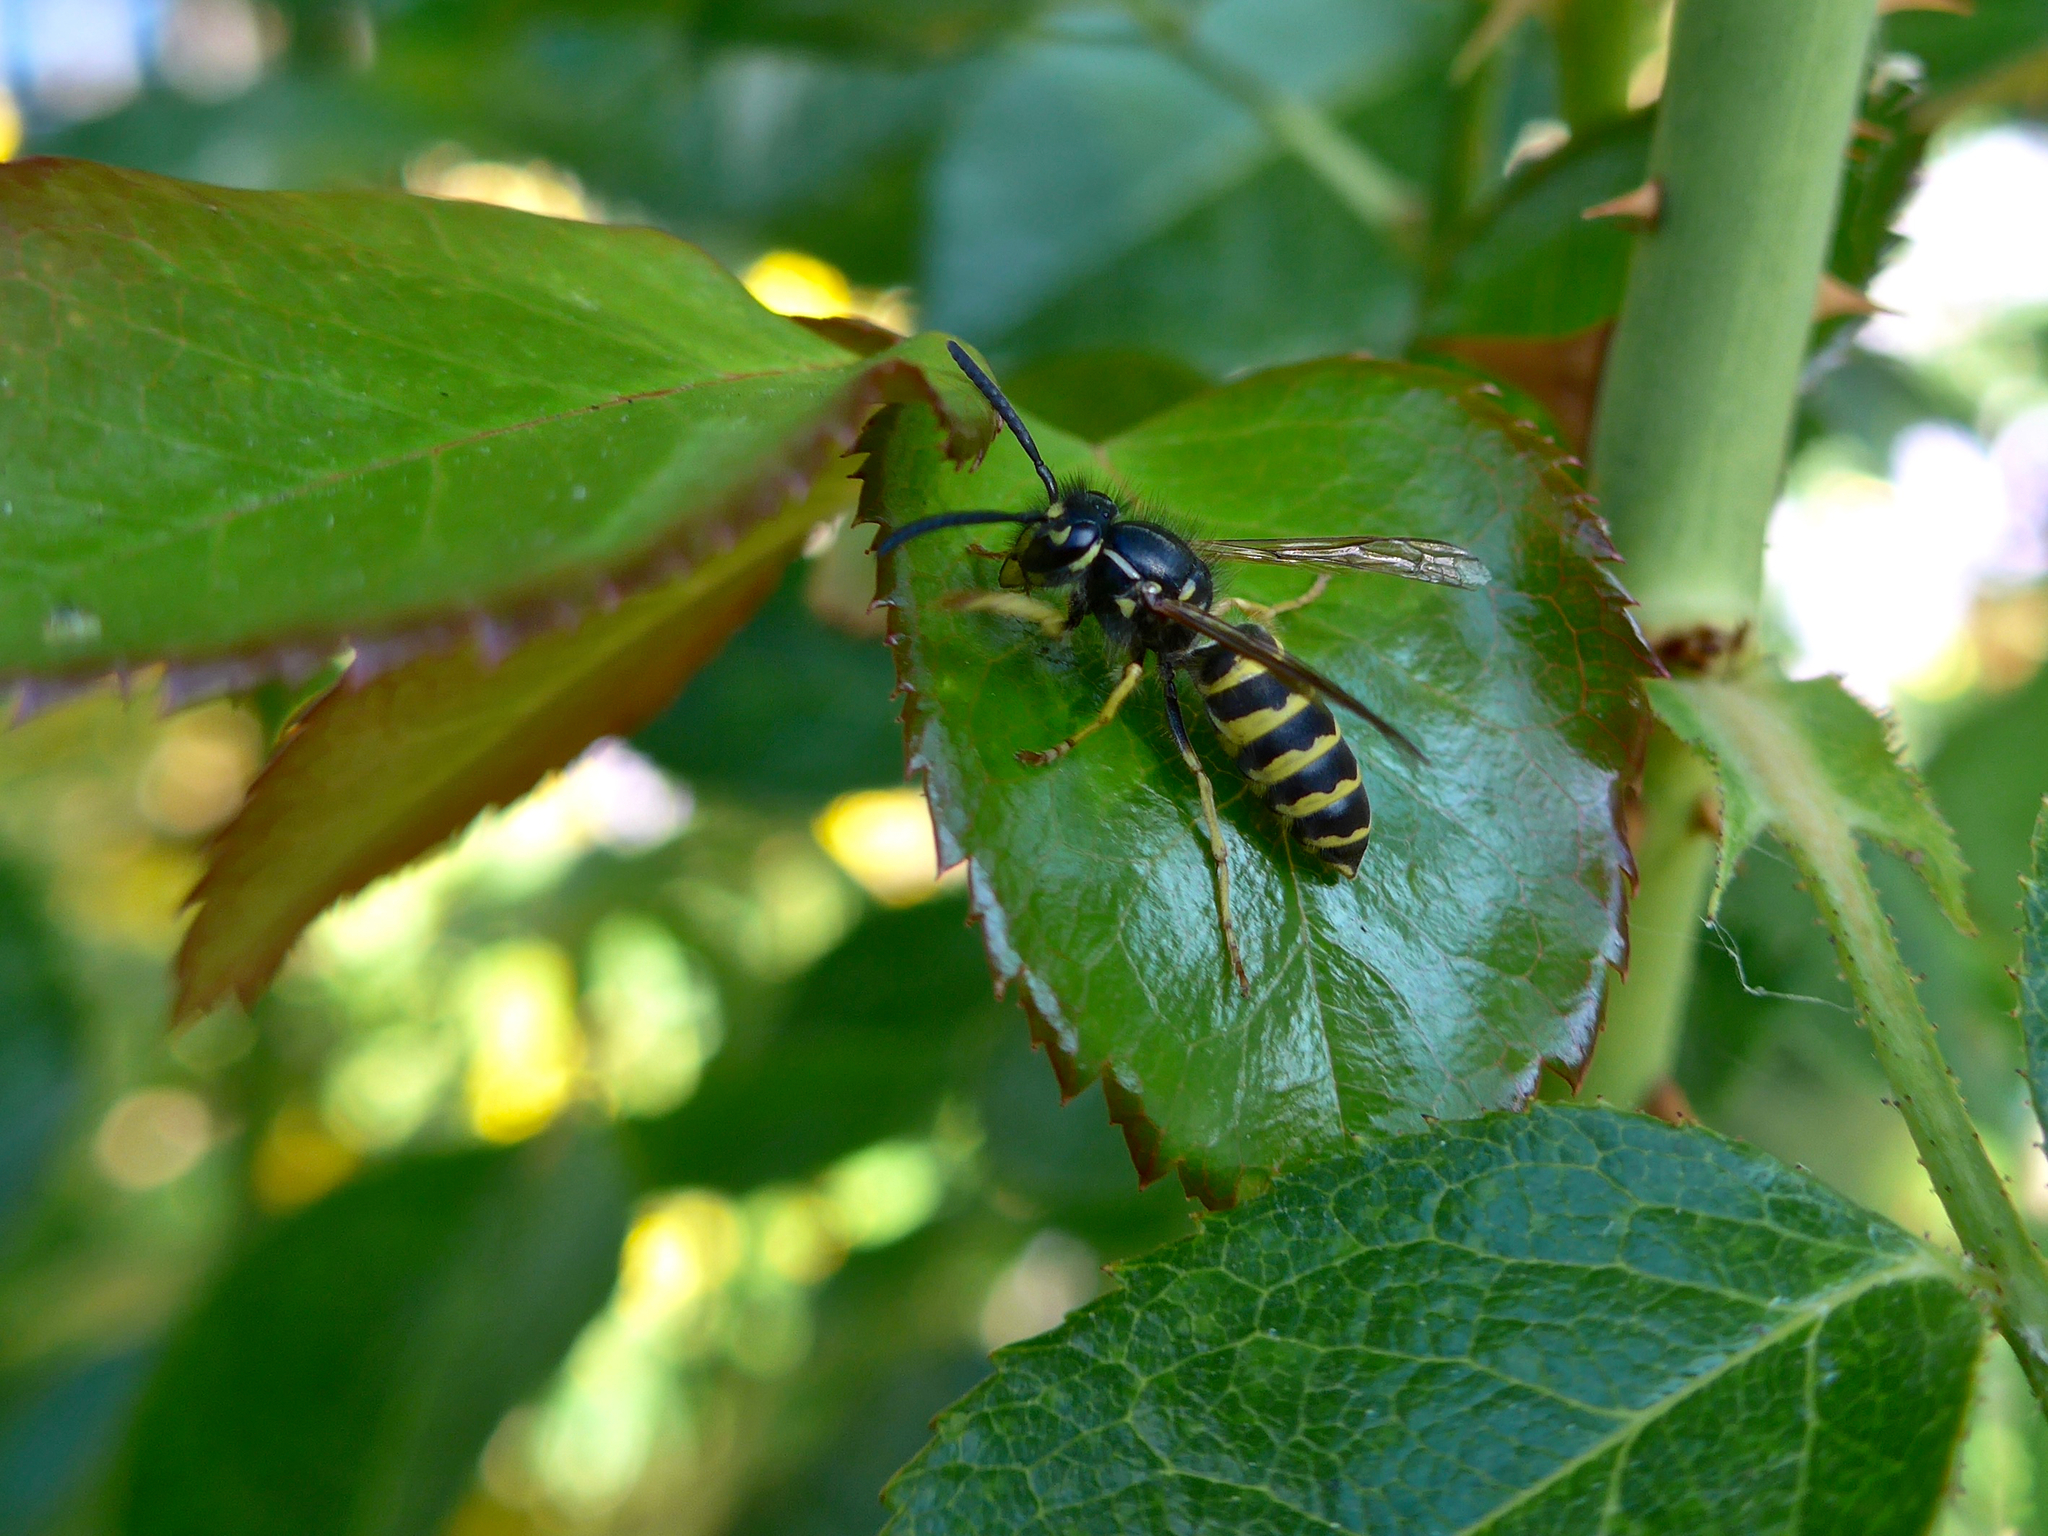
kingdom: Animalia
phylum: Arthropoda
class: Insecta
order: Hymenoptera
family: Vespidae
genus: Vespula
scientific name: Vespula alascensis
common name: Alaska yellowjacket
